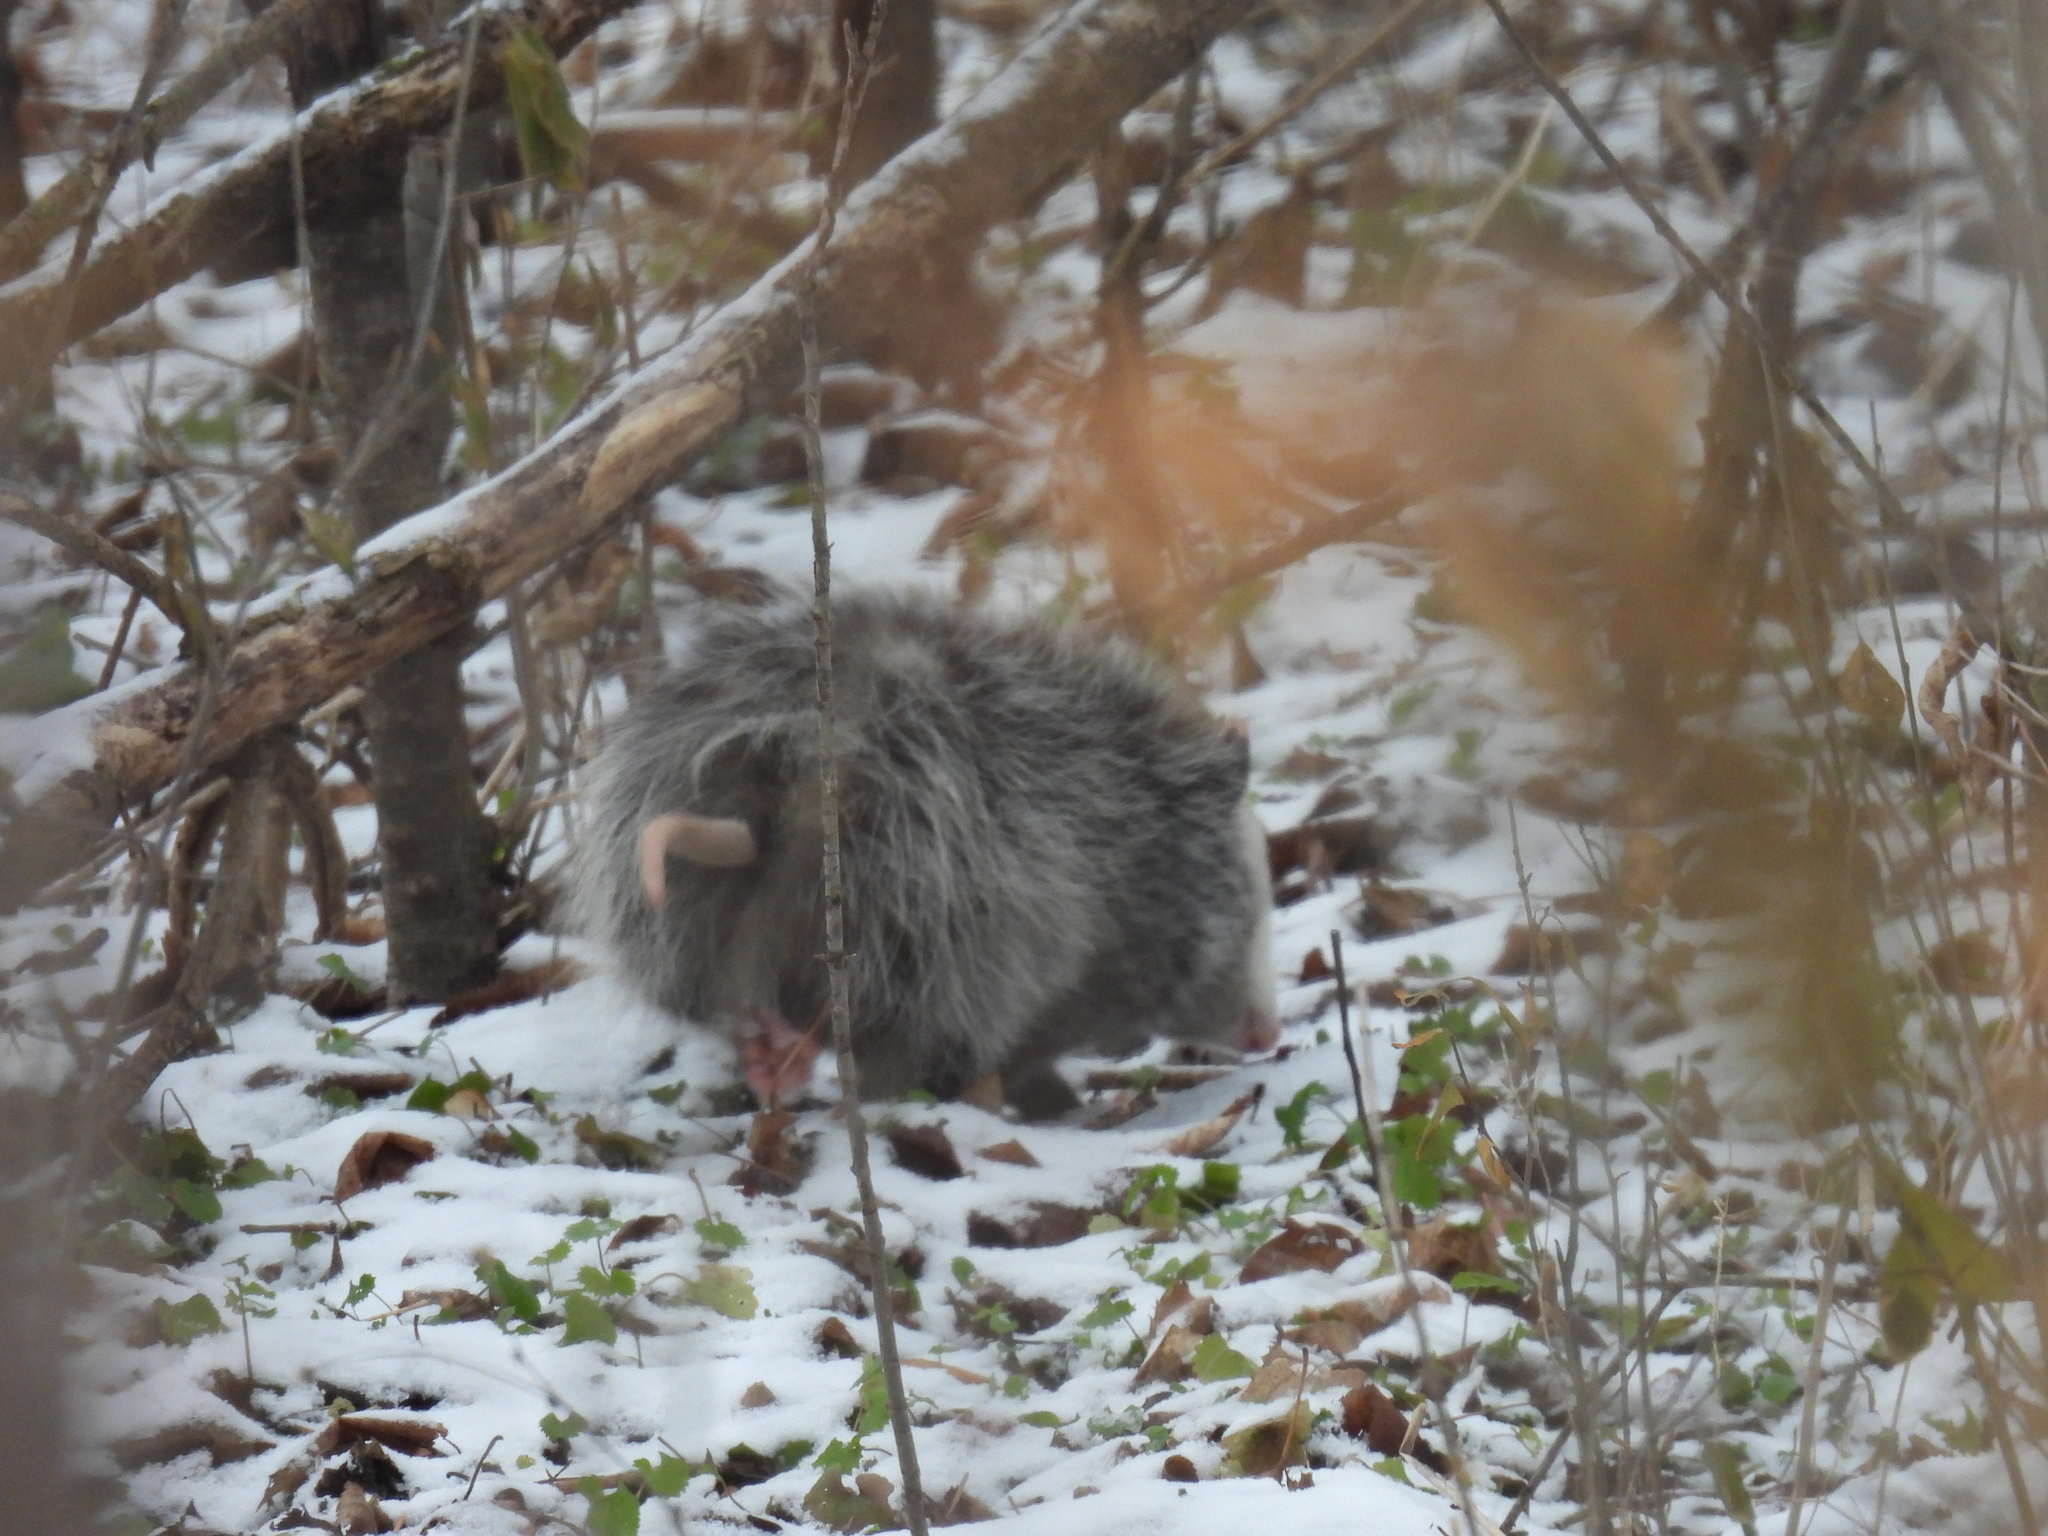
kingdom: Animalia
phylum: Chordata
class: Mammalia
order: Didelphimorphia
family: Didelphidae
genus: Didelphis
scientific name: Didelphis virginiana
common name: Virginia opossum
